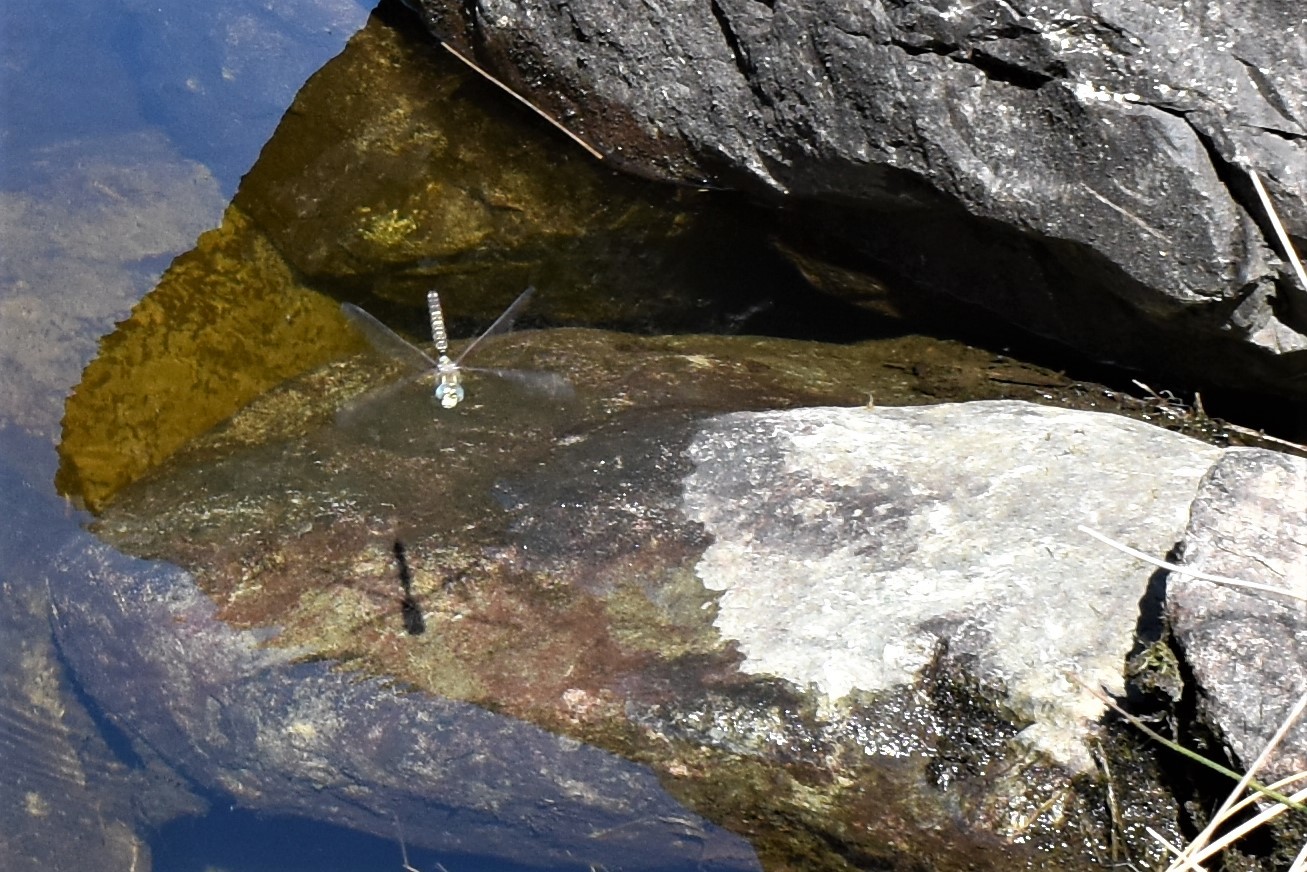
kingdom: Animalia
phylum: Arthropoda
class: Insecta
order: Odonata
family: Aeshnidae
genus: Aeshna
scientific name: Aeshna brevistyla
